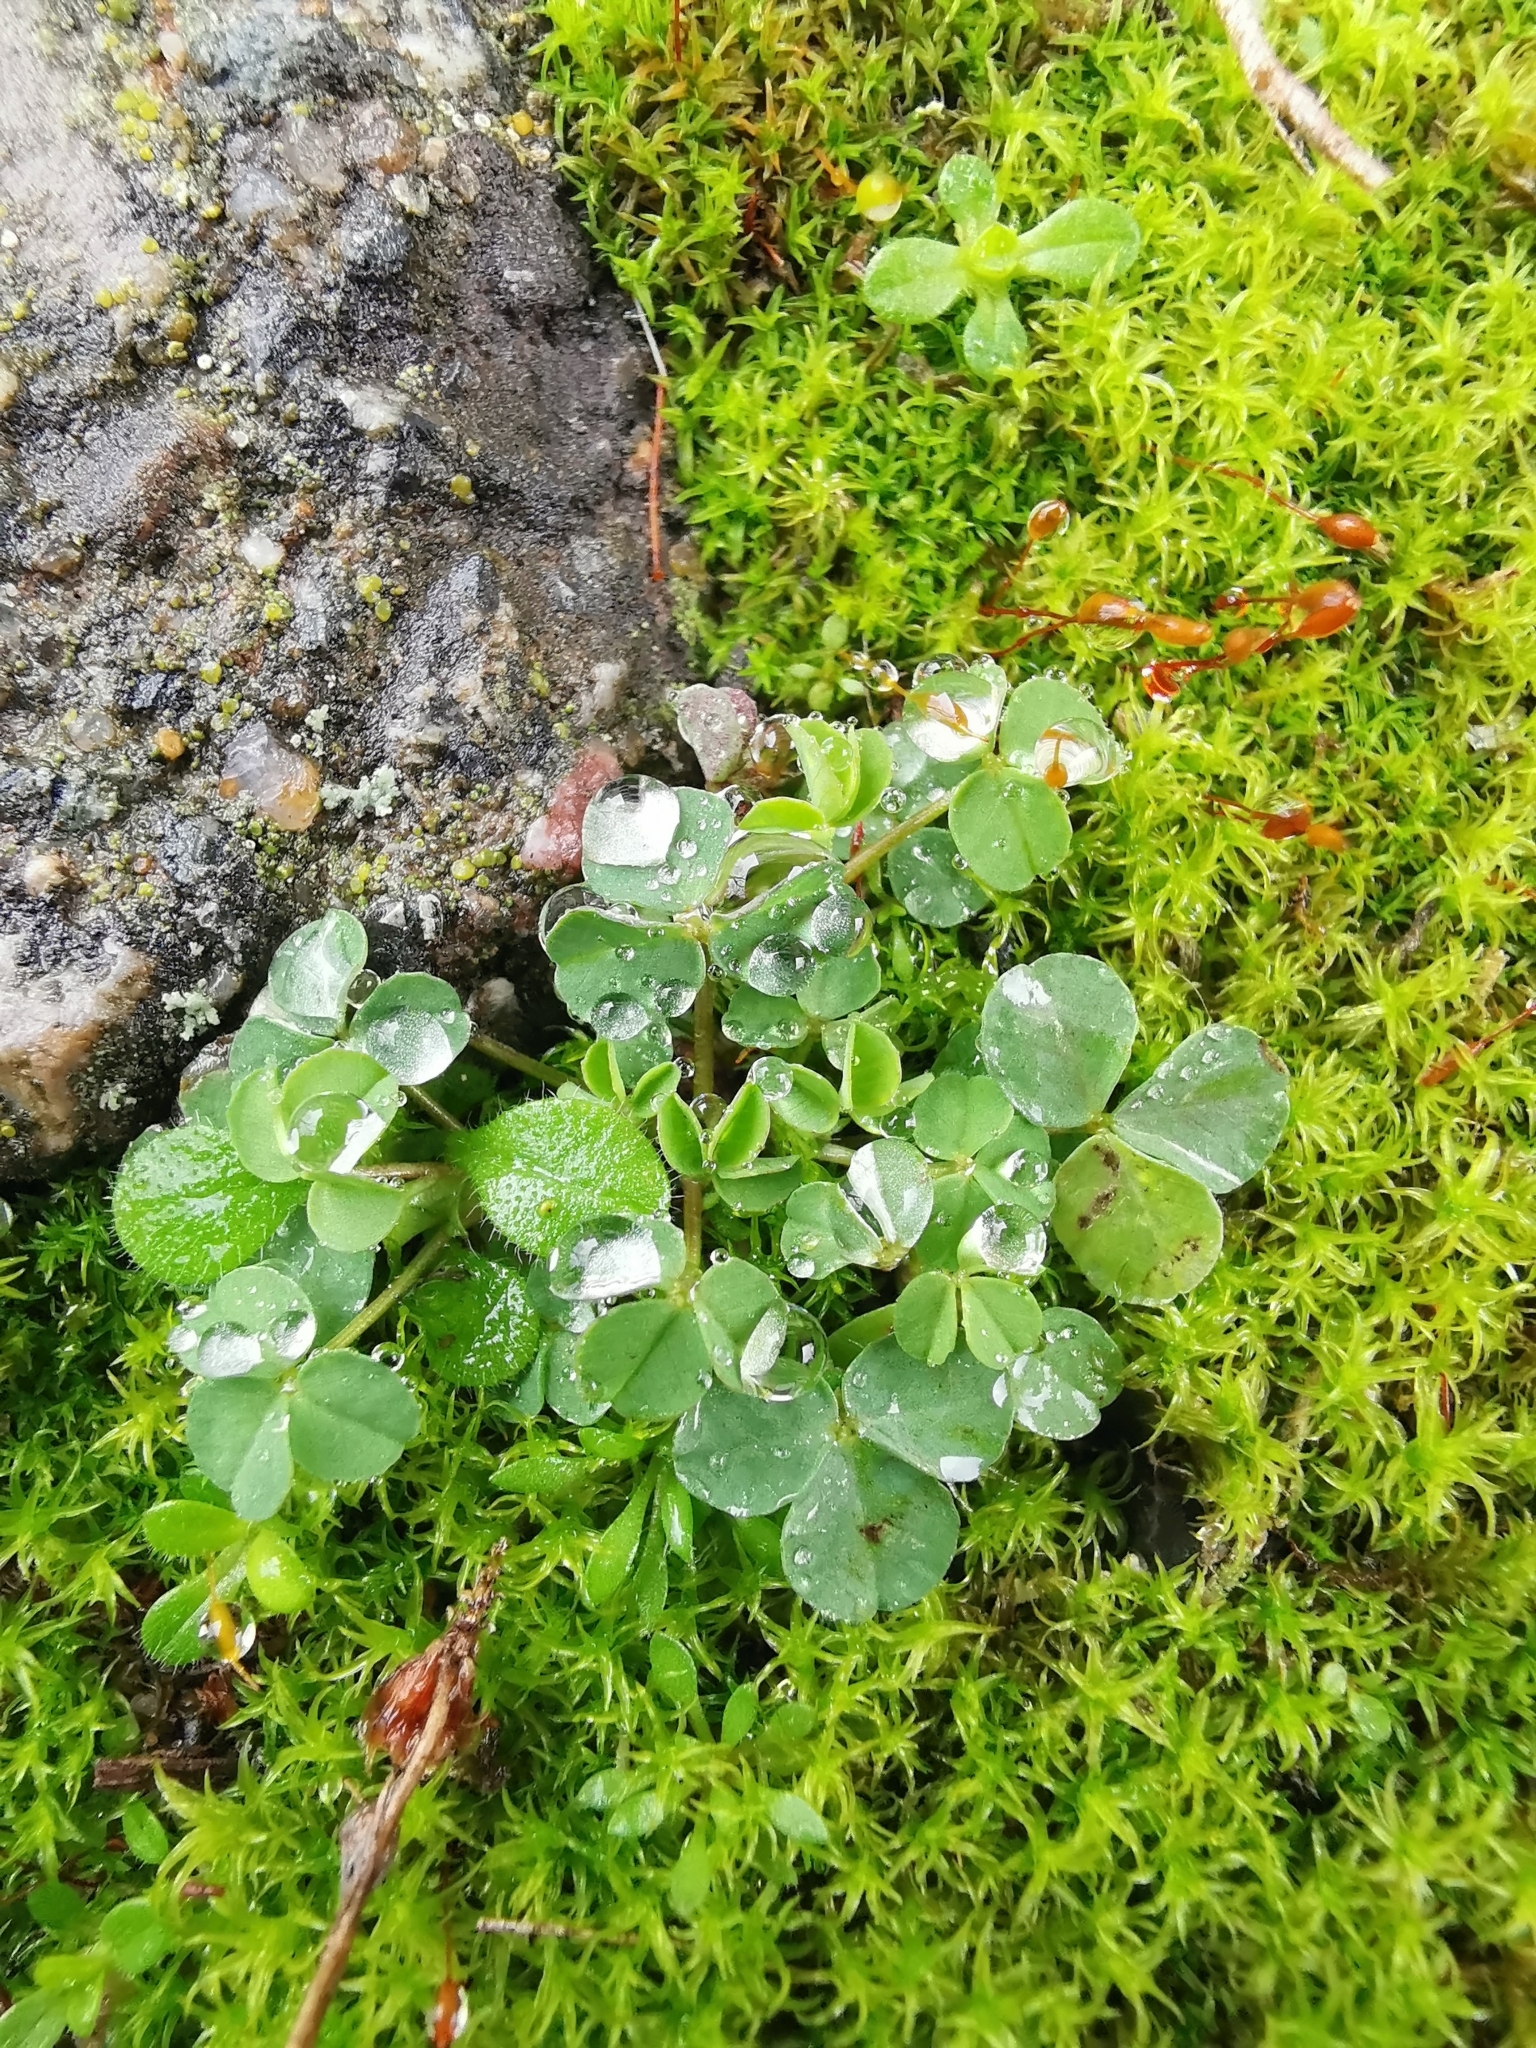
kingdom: Plantae
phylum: Tracheophyta
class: Magnoliopsida
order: Fabales
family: Fabaceae
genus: Trifolium
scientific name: Trifolium repens
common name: White clover
